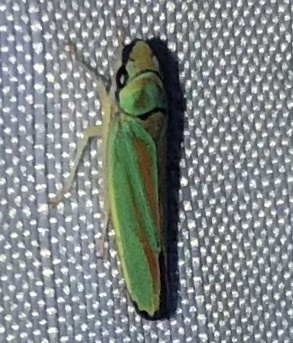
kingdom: Animalia
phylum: Arthropoda
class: Insecta
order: Hemiptera
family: Cicadellidae
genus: Graphocephala
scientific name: Graphocephala fennahi
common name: Rhododendron leafhopper
